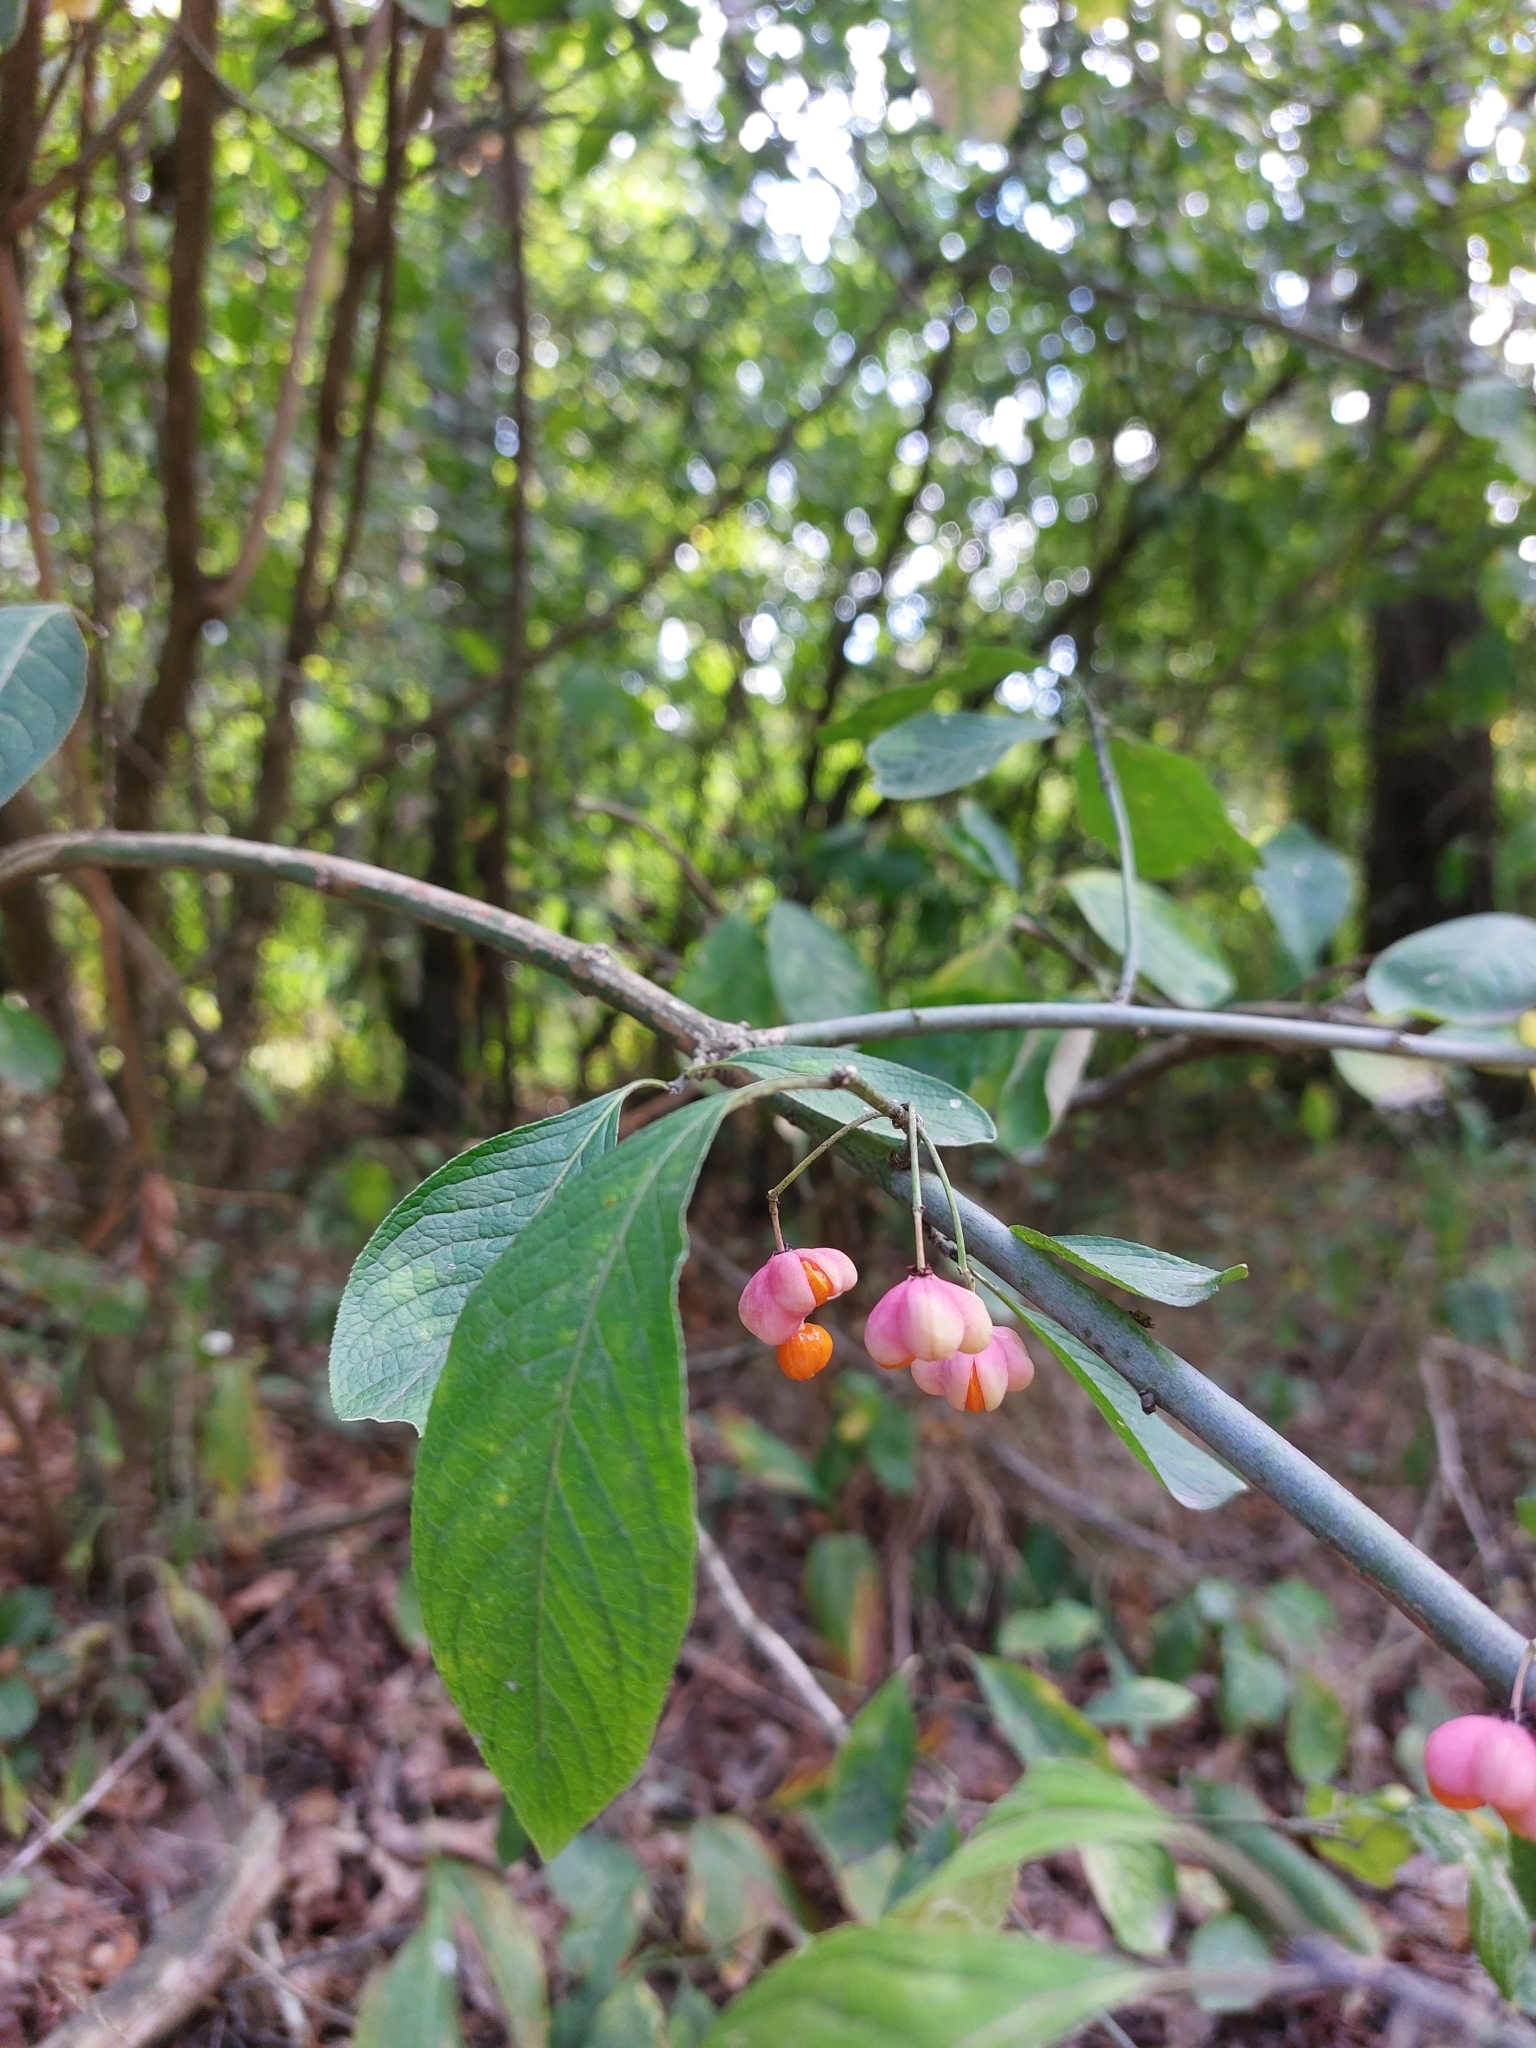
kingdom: Plantae
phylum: Tracheophyta
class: Magnoliopsida
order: Celastrales
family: Celastraceae
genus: Euonymus
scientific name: Euonymus europaeus
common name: Spindle
